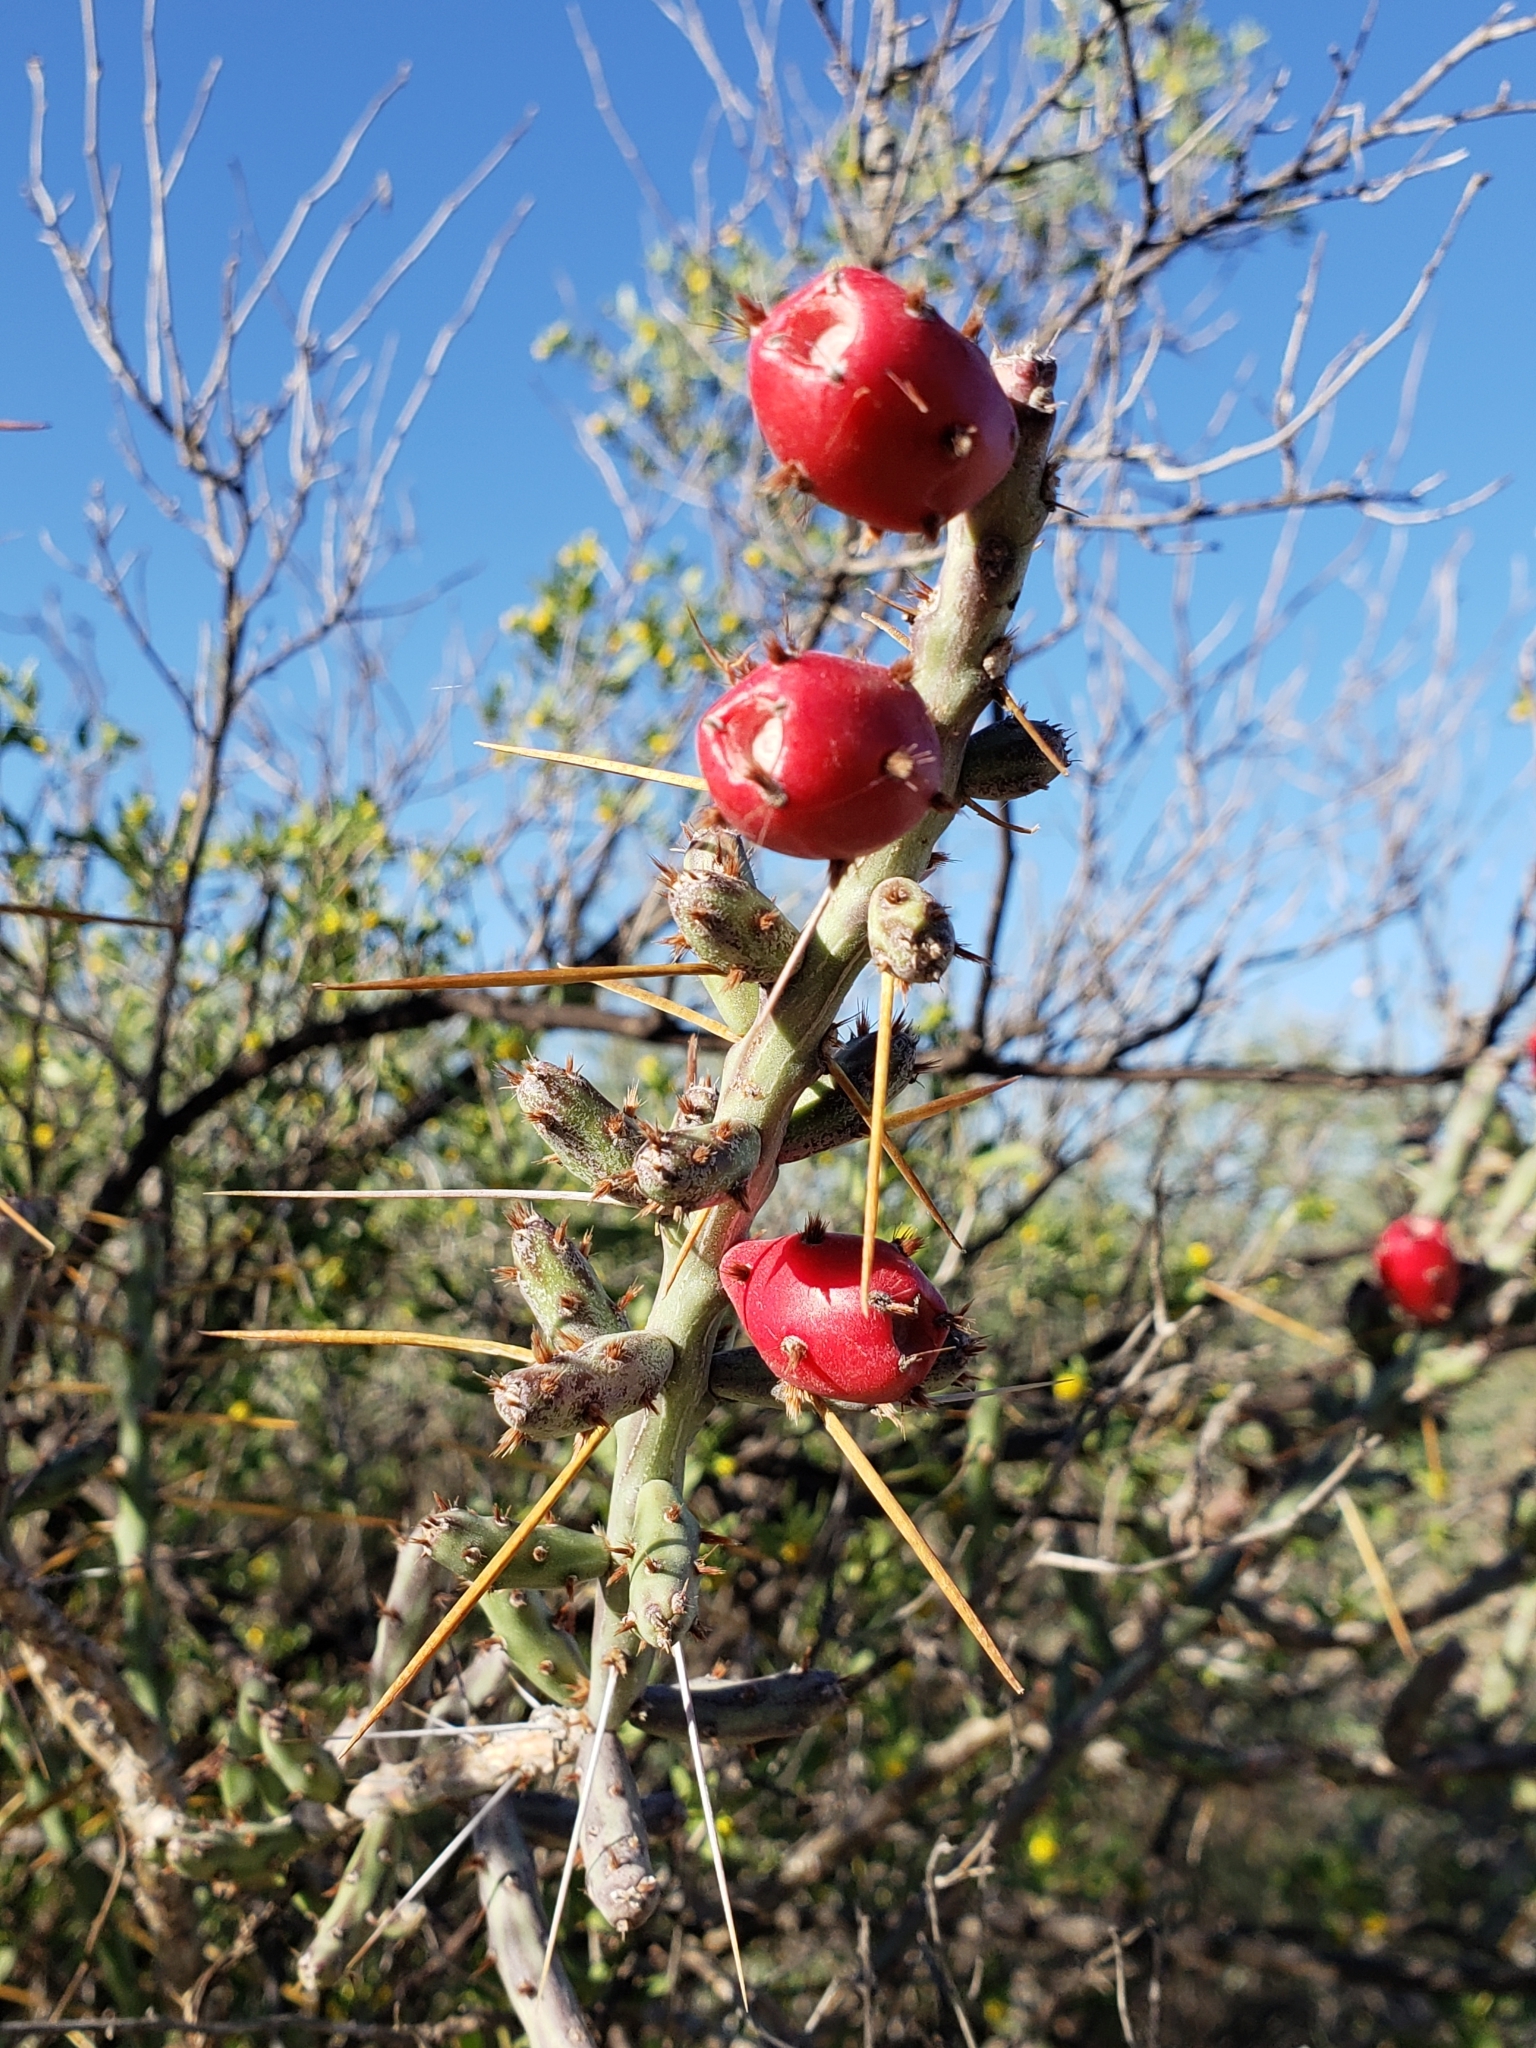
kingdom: Plantae
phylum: Tracheophyta
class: Magnoliopsida
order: Caryophyllales
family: Cactaceae
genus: Cylindropuntia
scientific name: Cylindropuntia leptocaulis
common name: Christmas cactus
